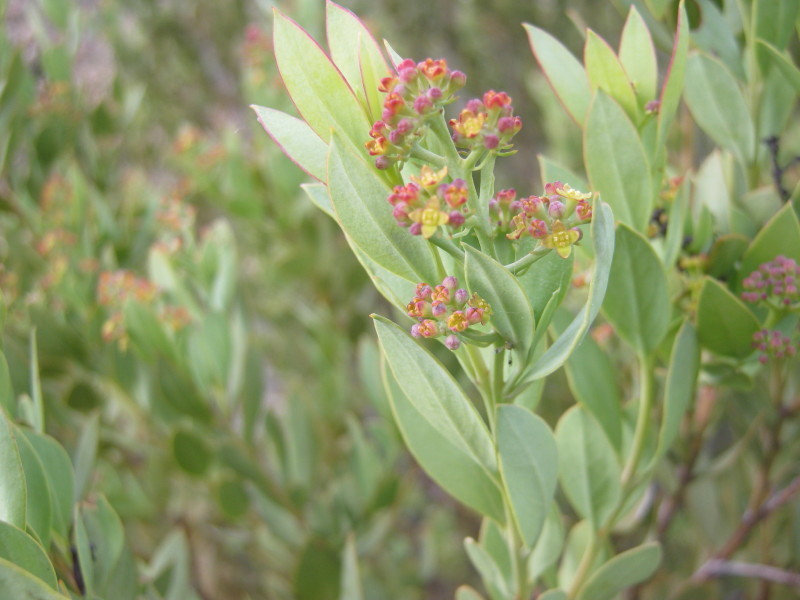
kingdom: Plantae
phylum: Tracheophyta
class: Magnoliopsida
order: Santalales
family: Santalaceae
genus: Osyris
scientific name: Osyris compressa
